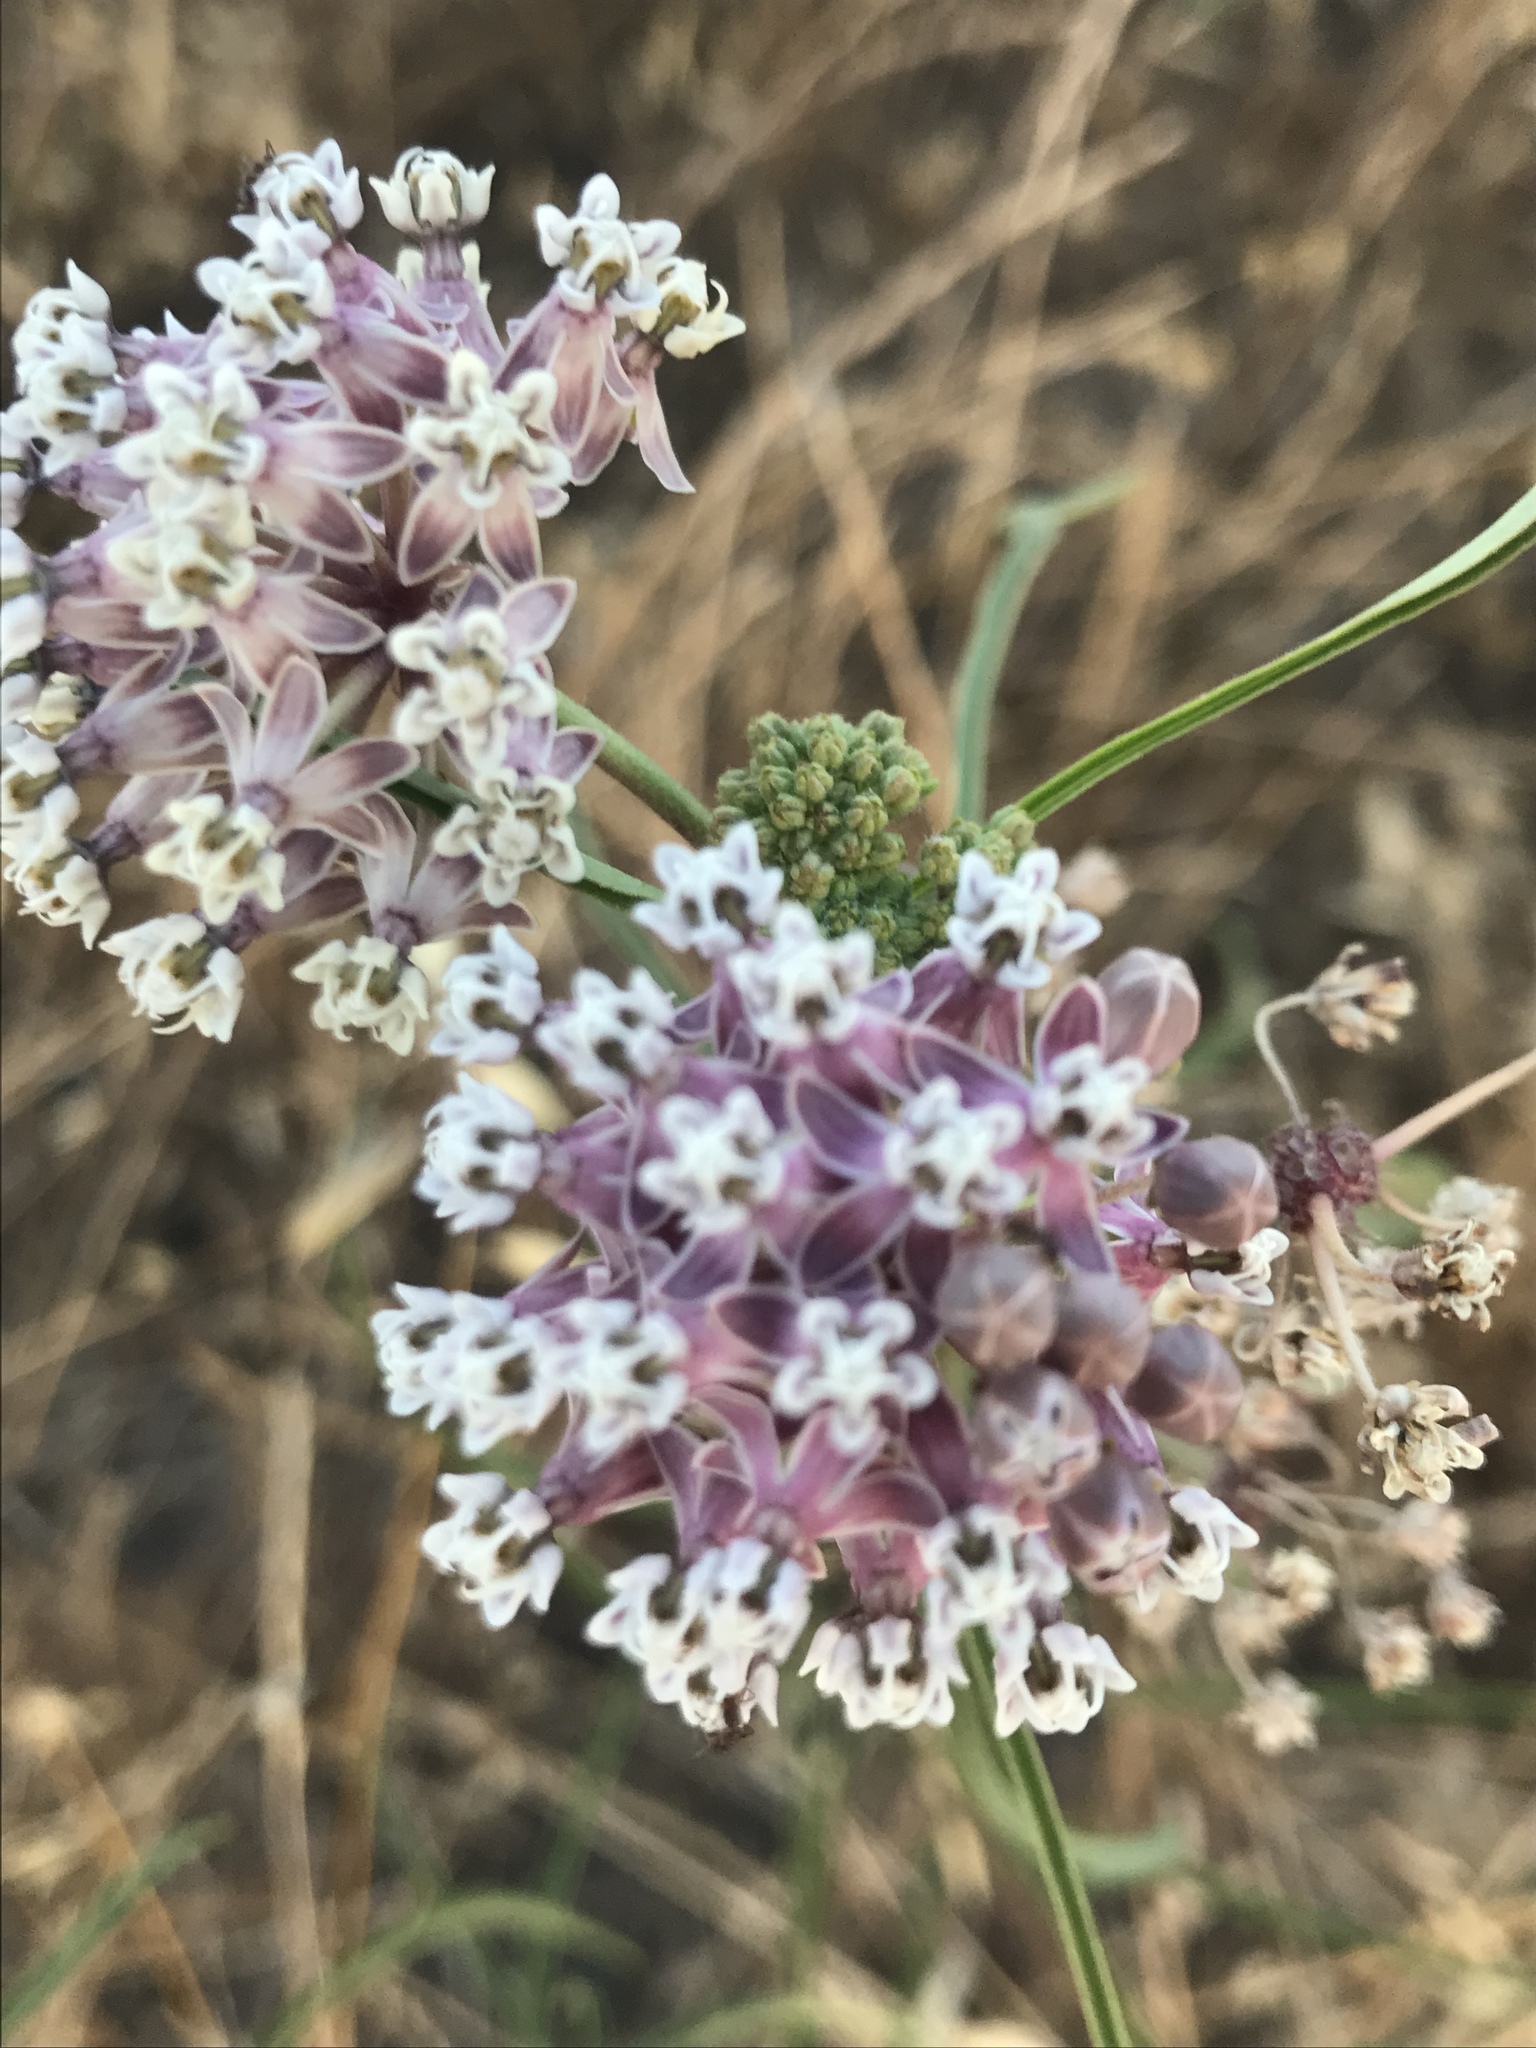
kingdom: Plantae
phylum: Tracheophyta
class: Magnoliopsida
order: Gentianales
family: Apocynaceae
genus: Asclepias
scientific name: Asclepias fascicularis
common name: Mexican milkweed
